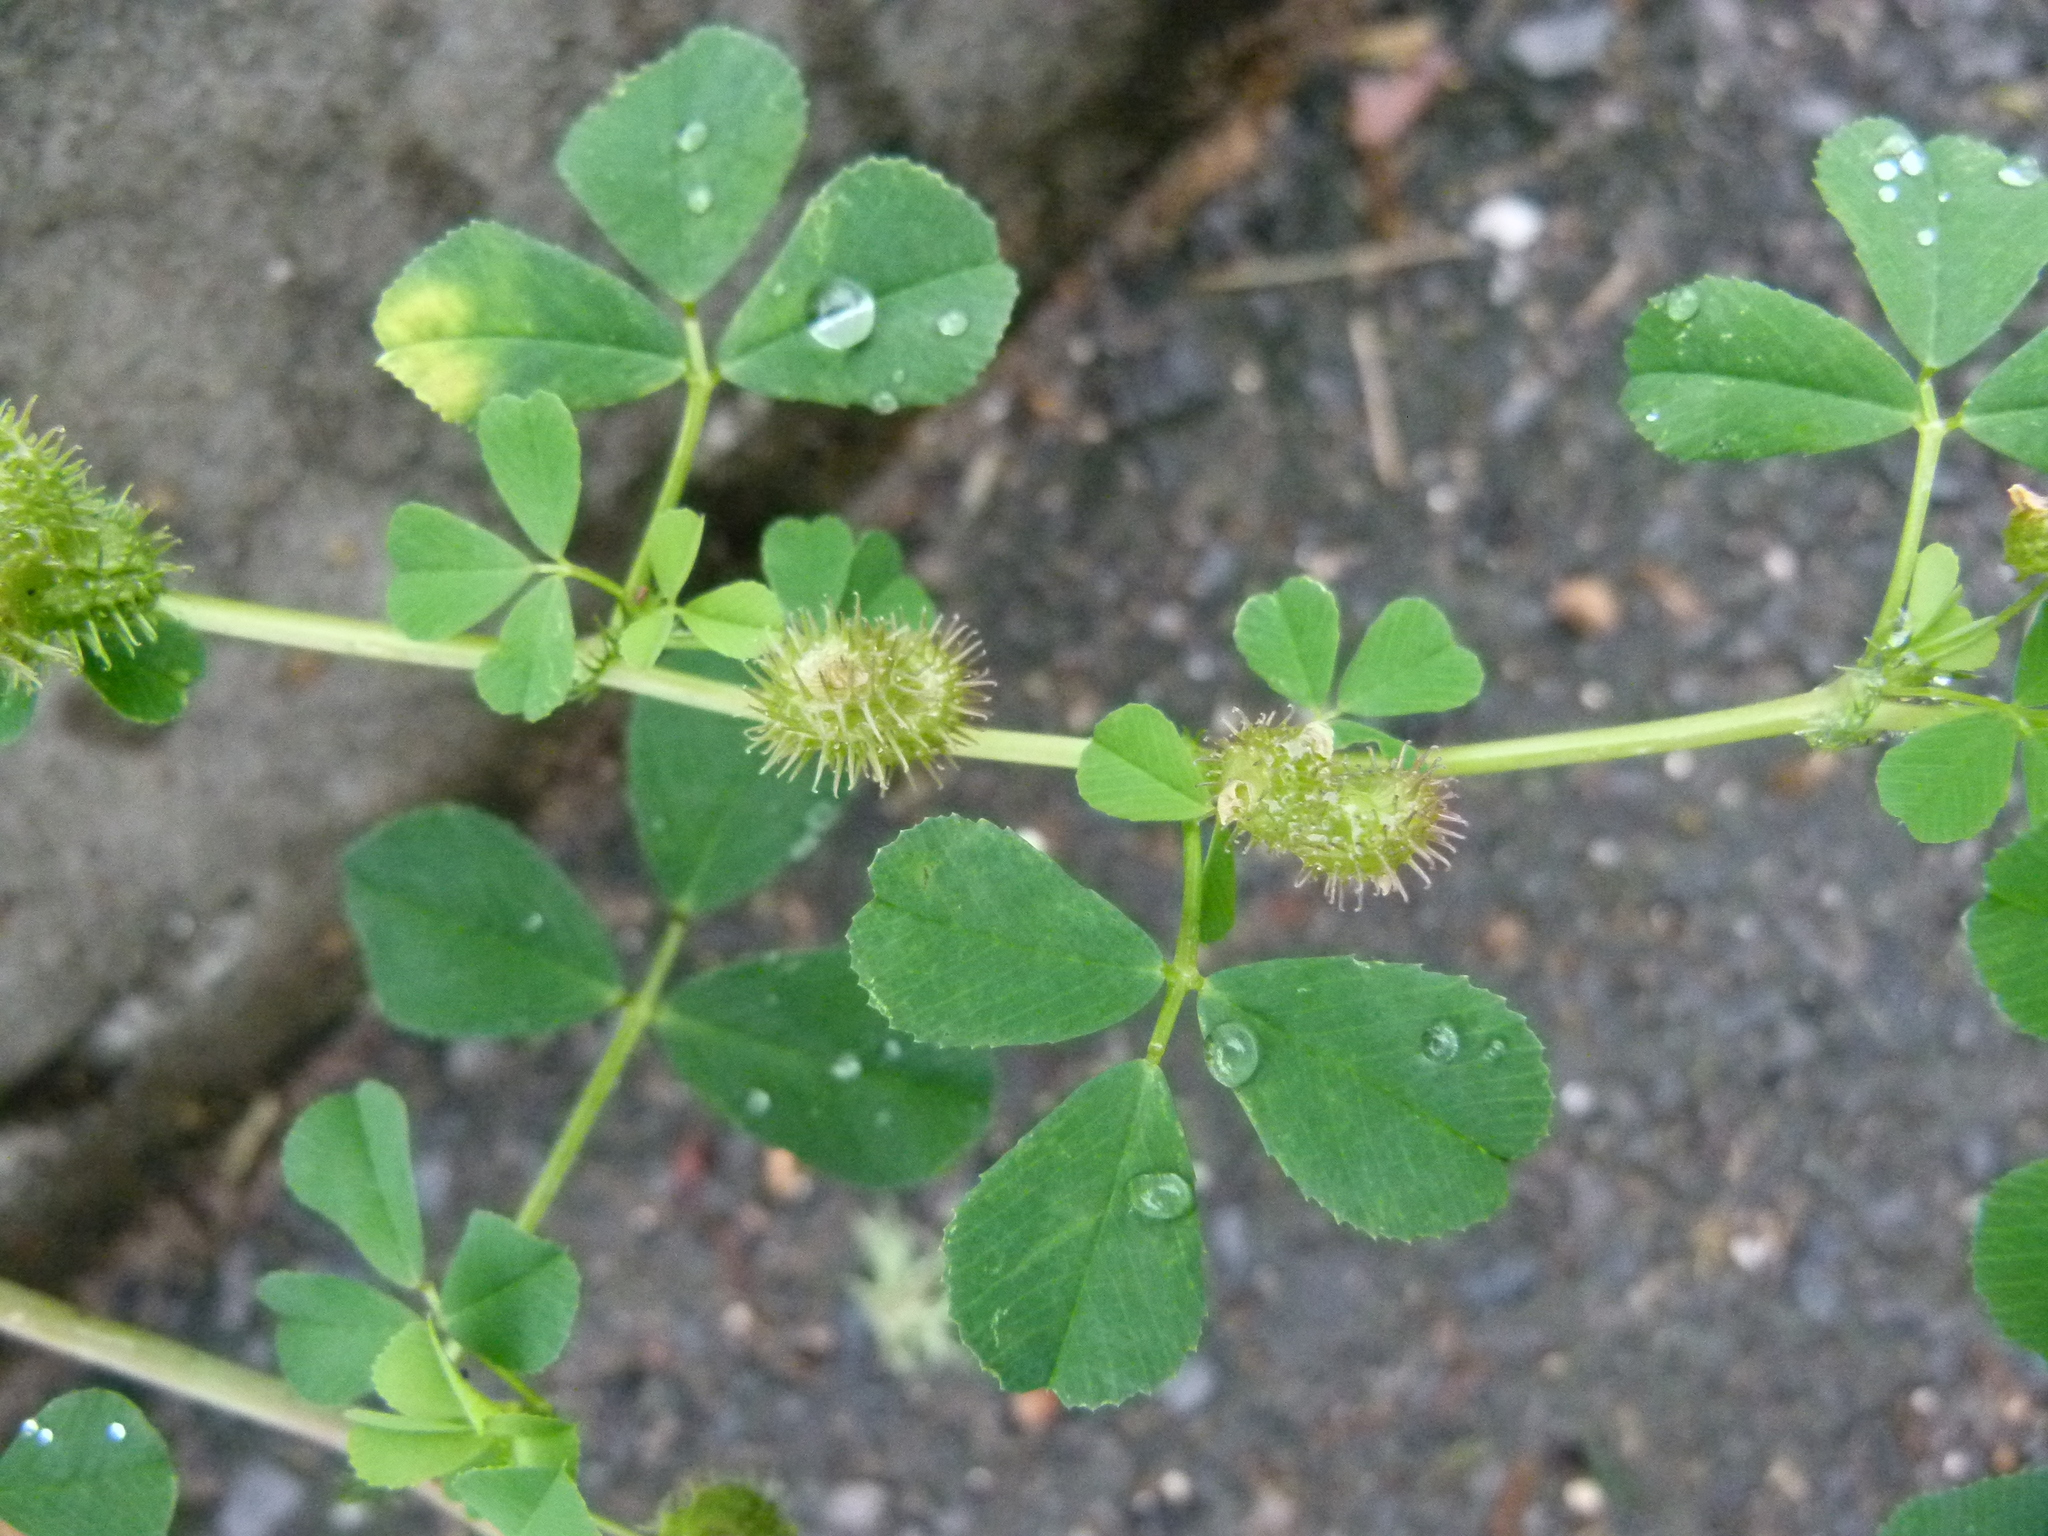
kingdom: Plantae
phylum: Tracheophyta
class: Magnoliopsida
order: Fabales
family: Fabaceae
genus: Medicago
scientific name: Medicago polymorpha
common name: Burclover
